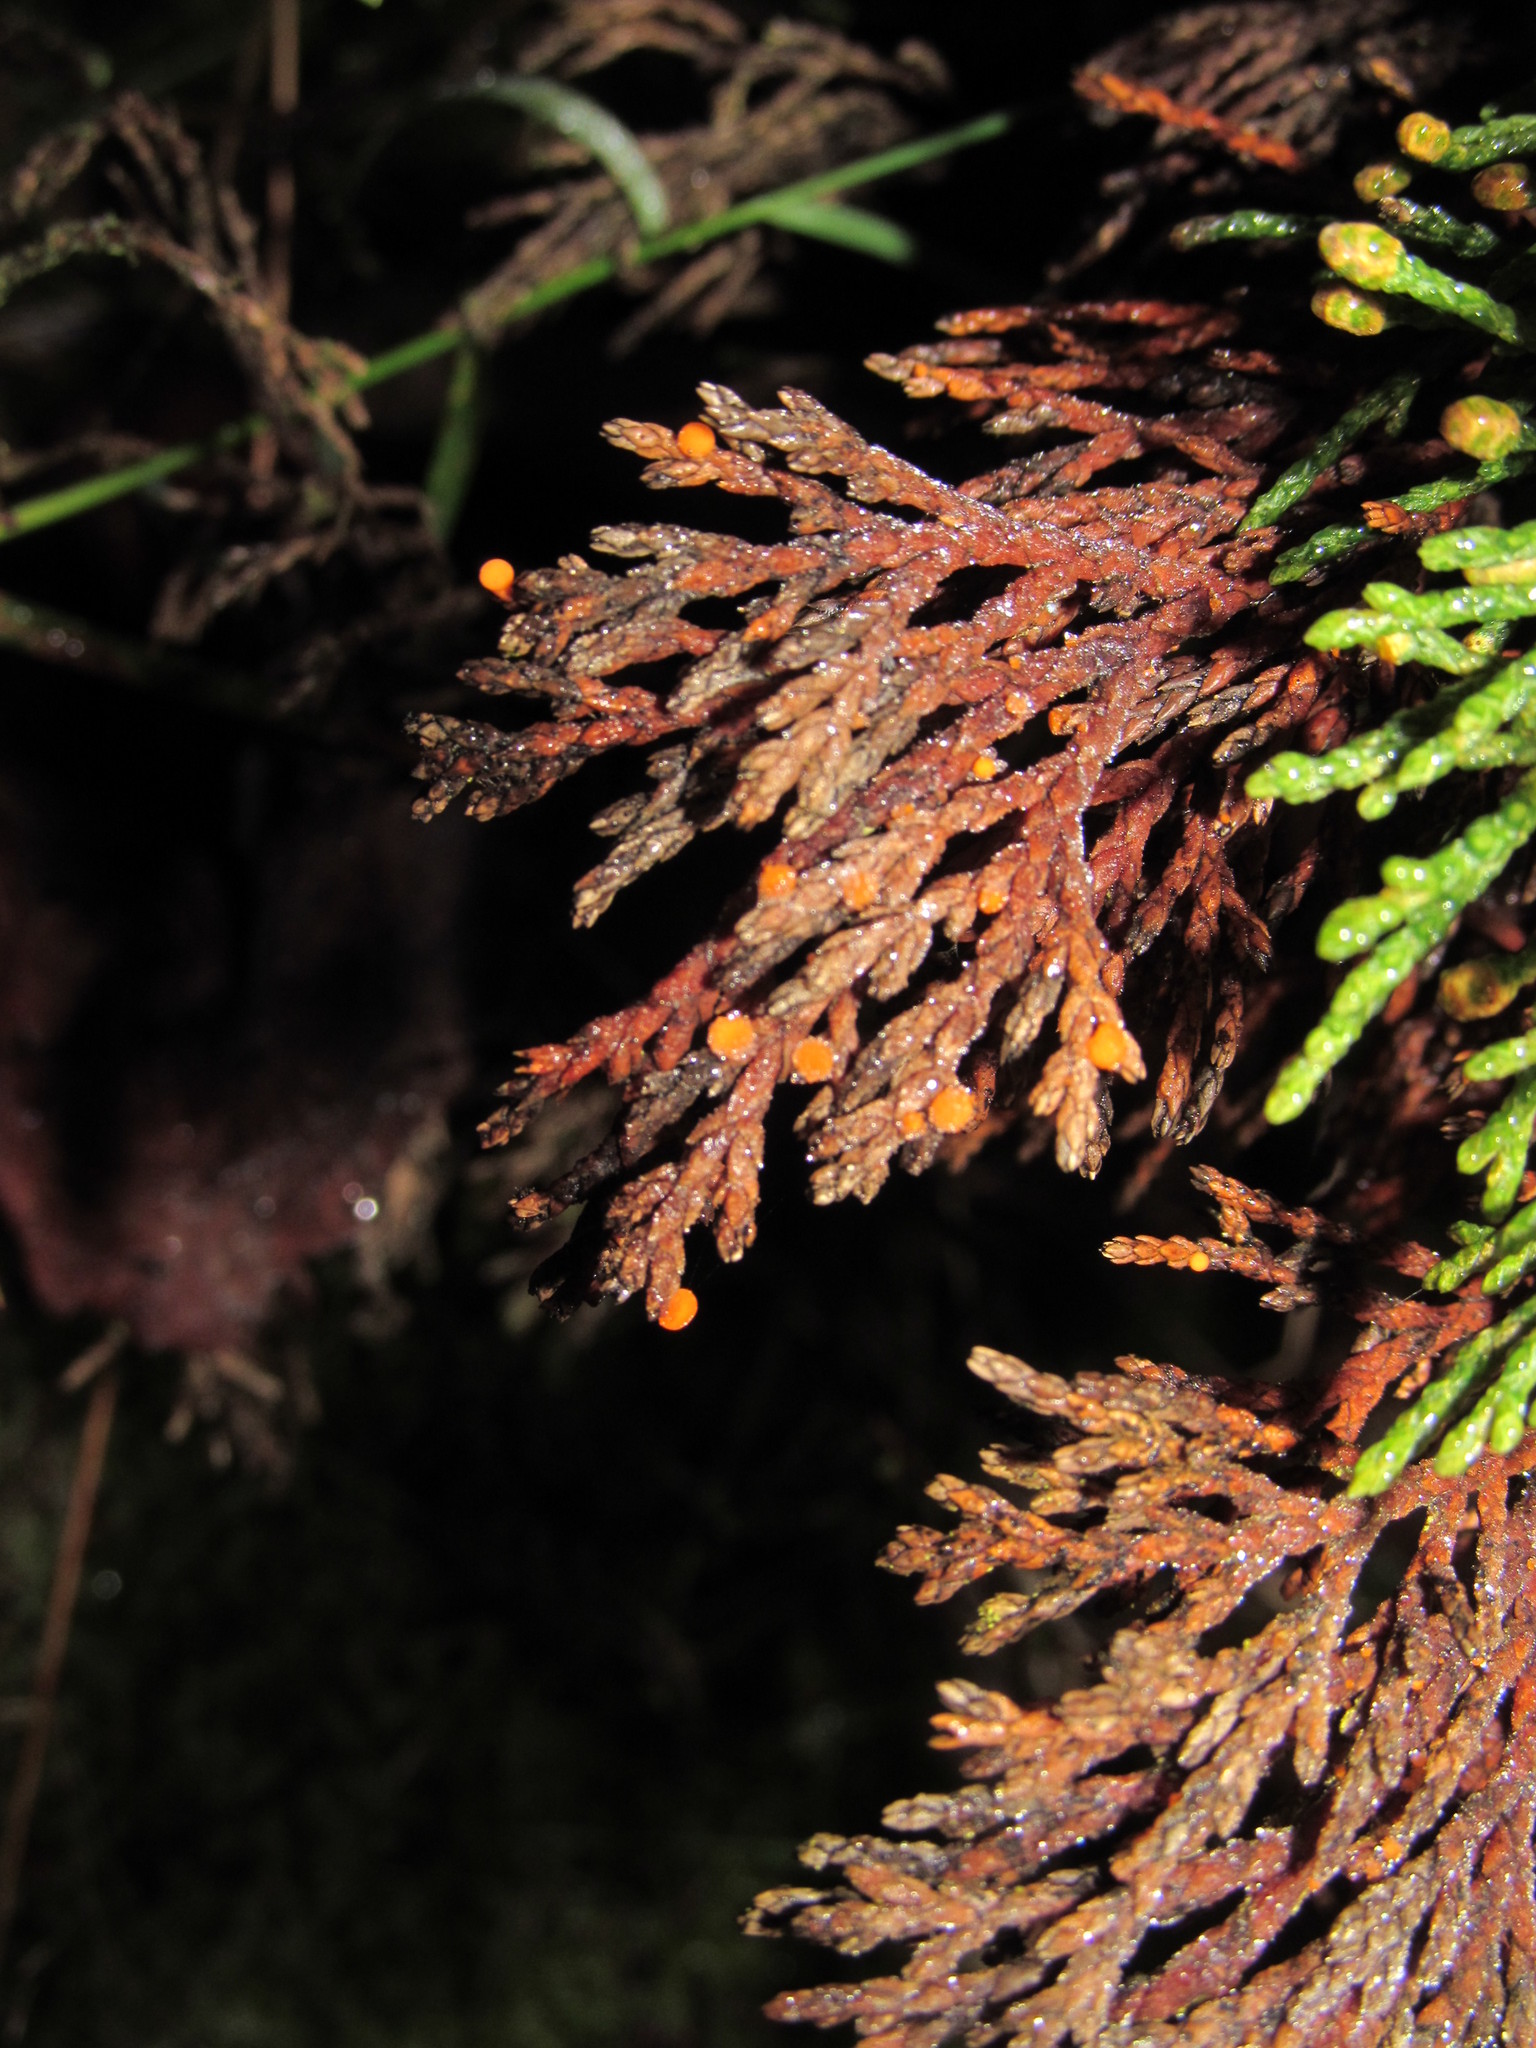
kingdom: Fungi
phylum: Ascomycota
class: Pezizomycetes
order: Pezizales
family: Sarcoscyphaceae
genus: Pithya
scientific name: Pithya cupressina
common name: Juniper disco
